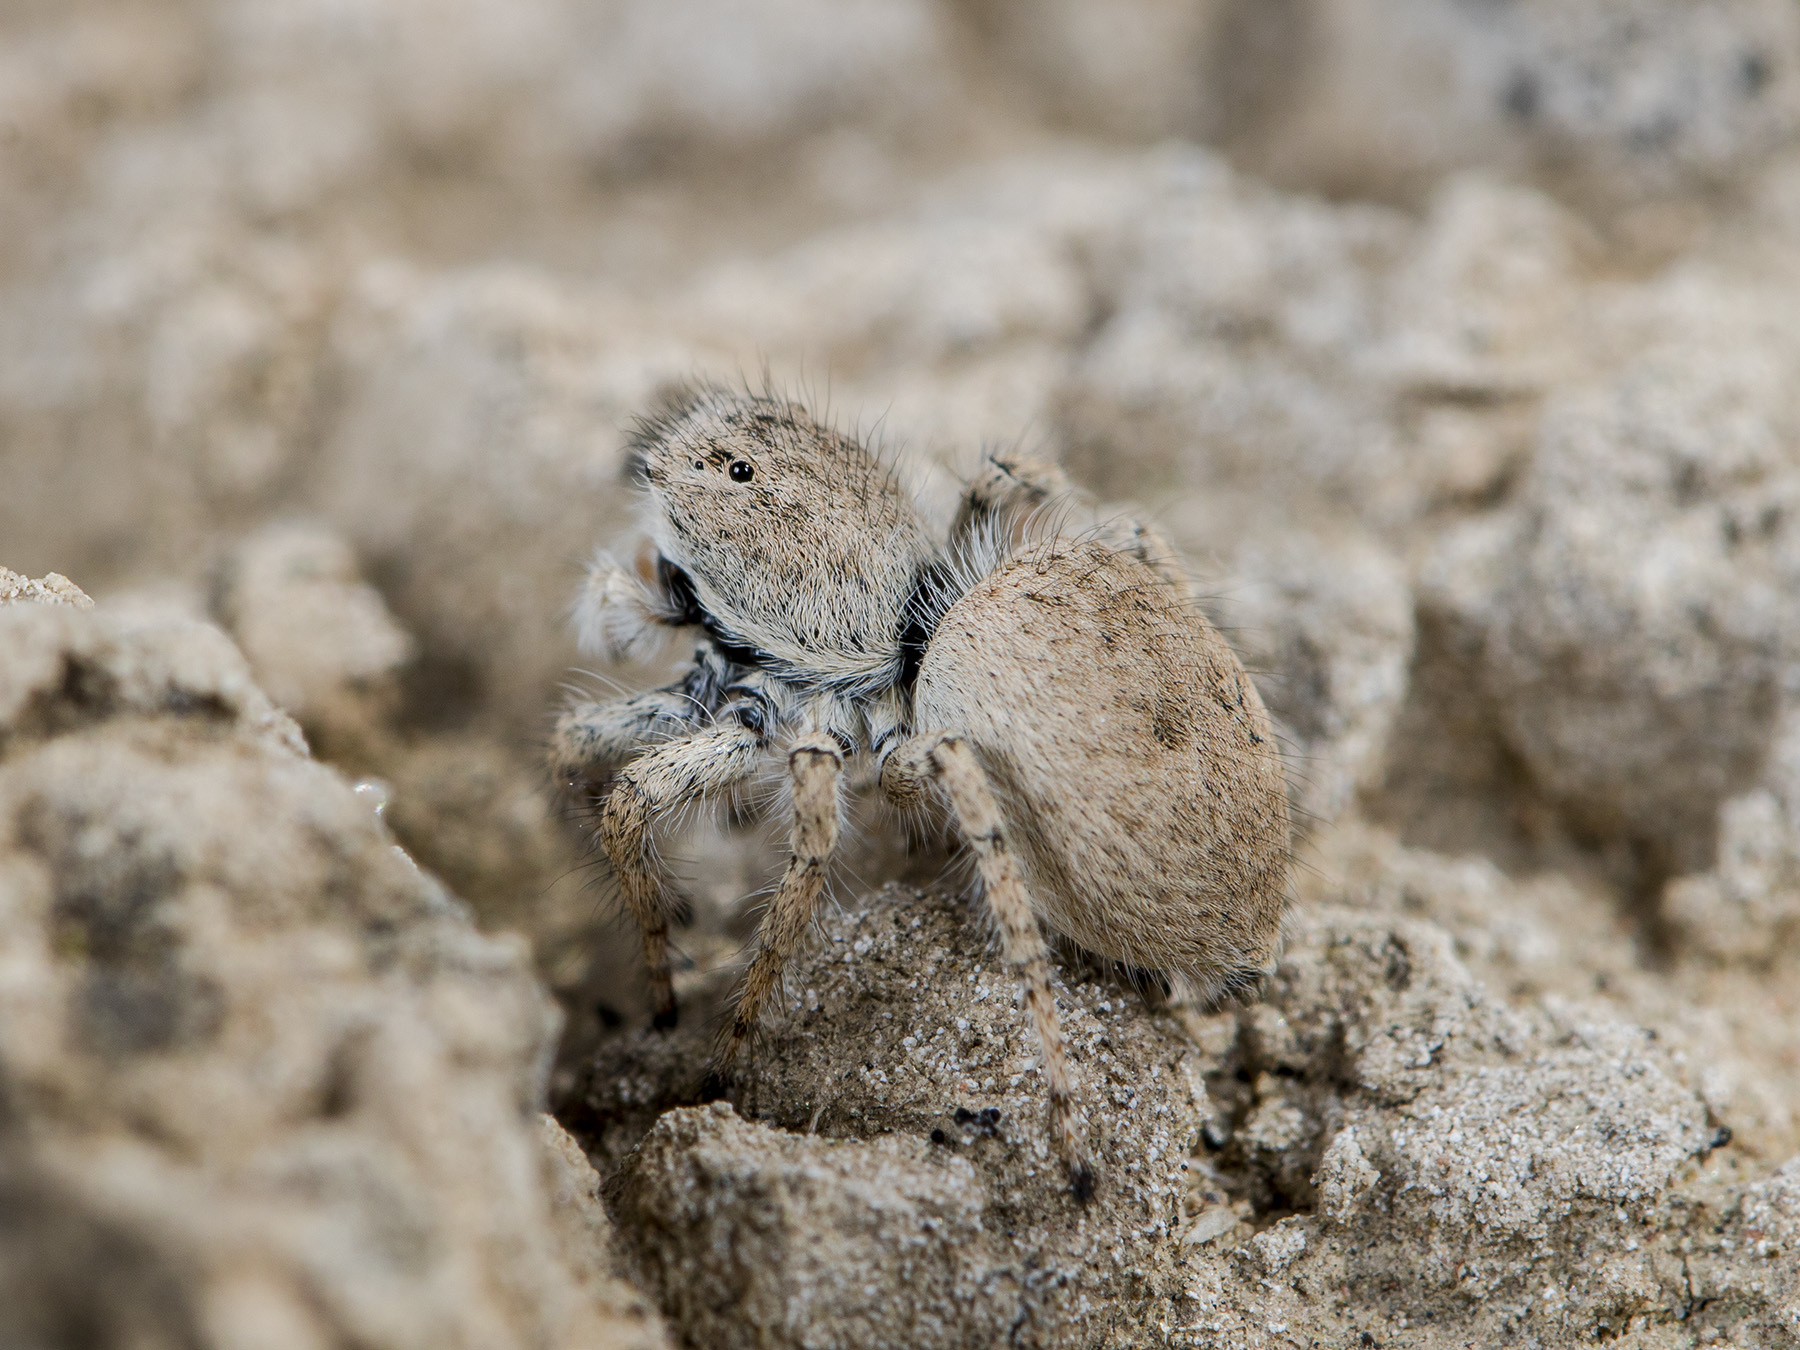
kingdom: Animalia
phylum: Arthropoda
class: Arachnida
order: Araneae
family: Salticidae
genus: Aelurillus
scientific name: Aelurillus concolor
